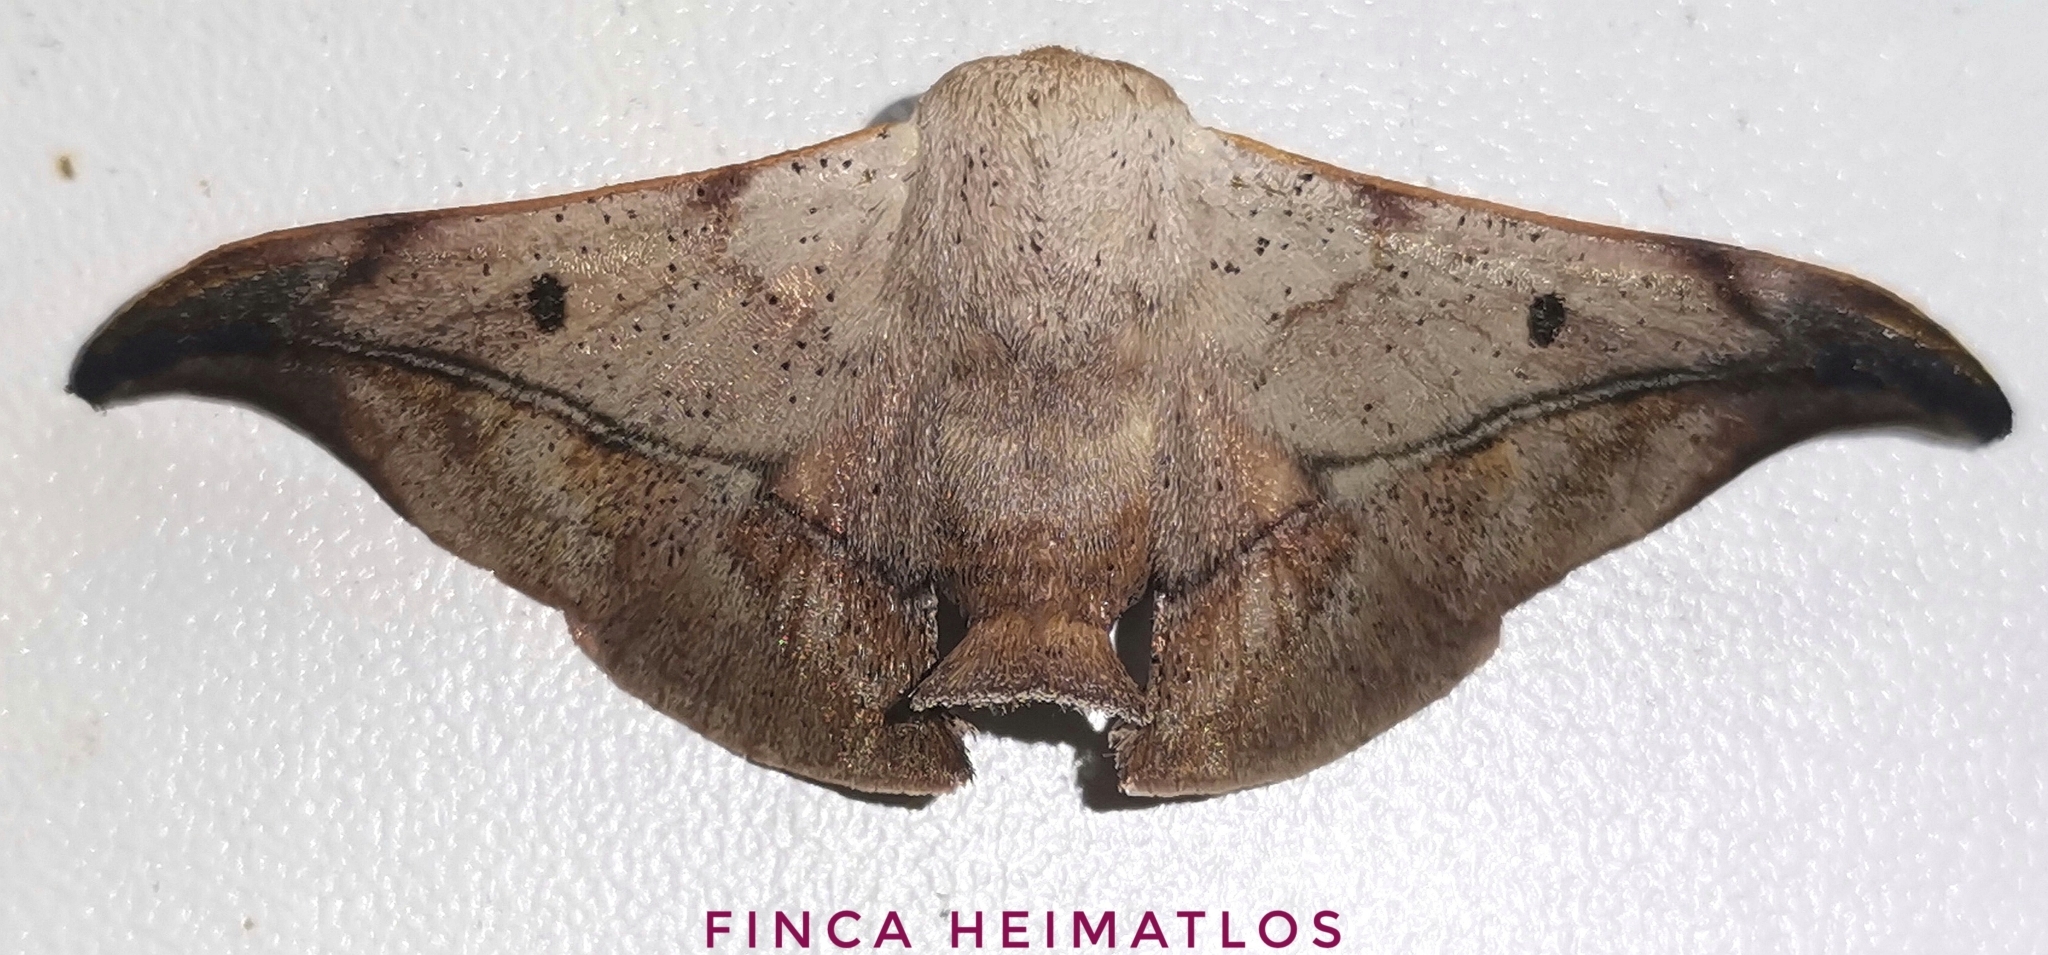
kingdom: Animalia
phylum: Arthropoda
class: Insecta
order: Lepidoptera
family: Mimallonidae
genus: Thaelia
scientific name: Thaelia beniensis
